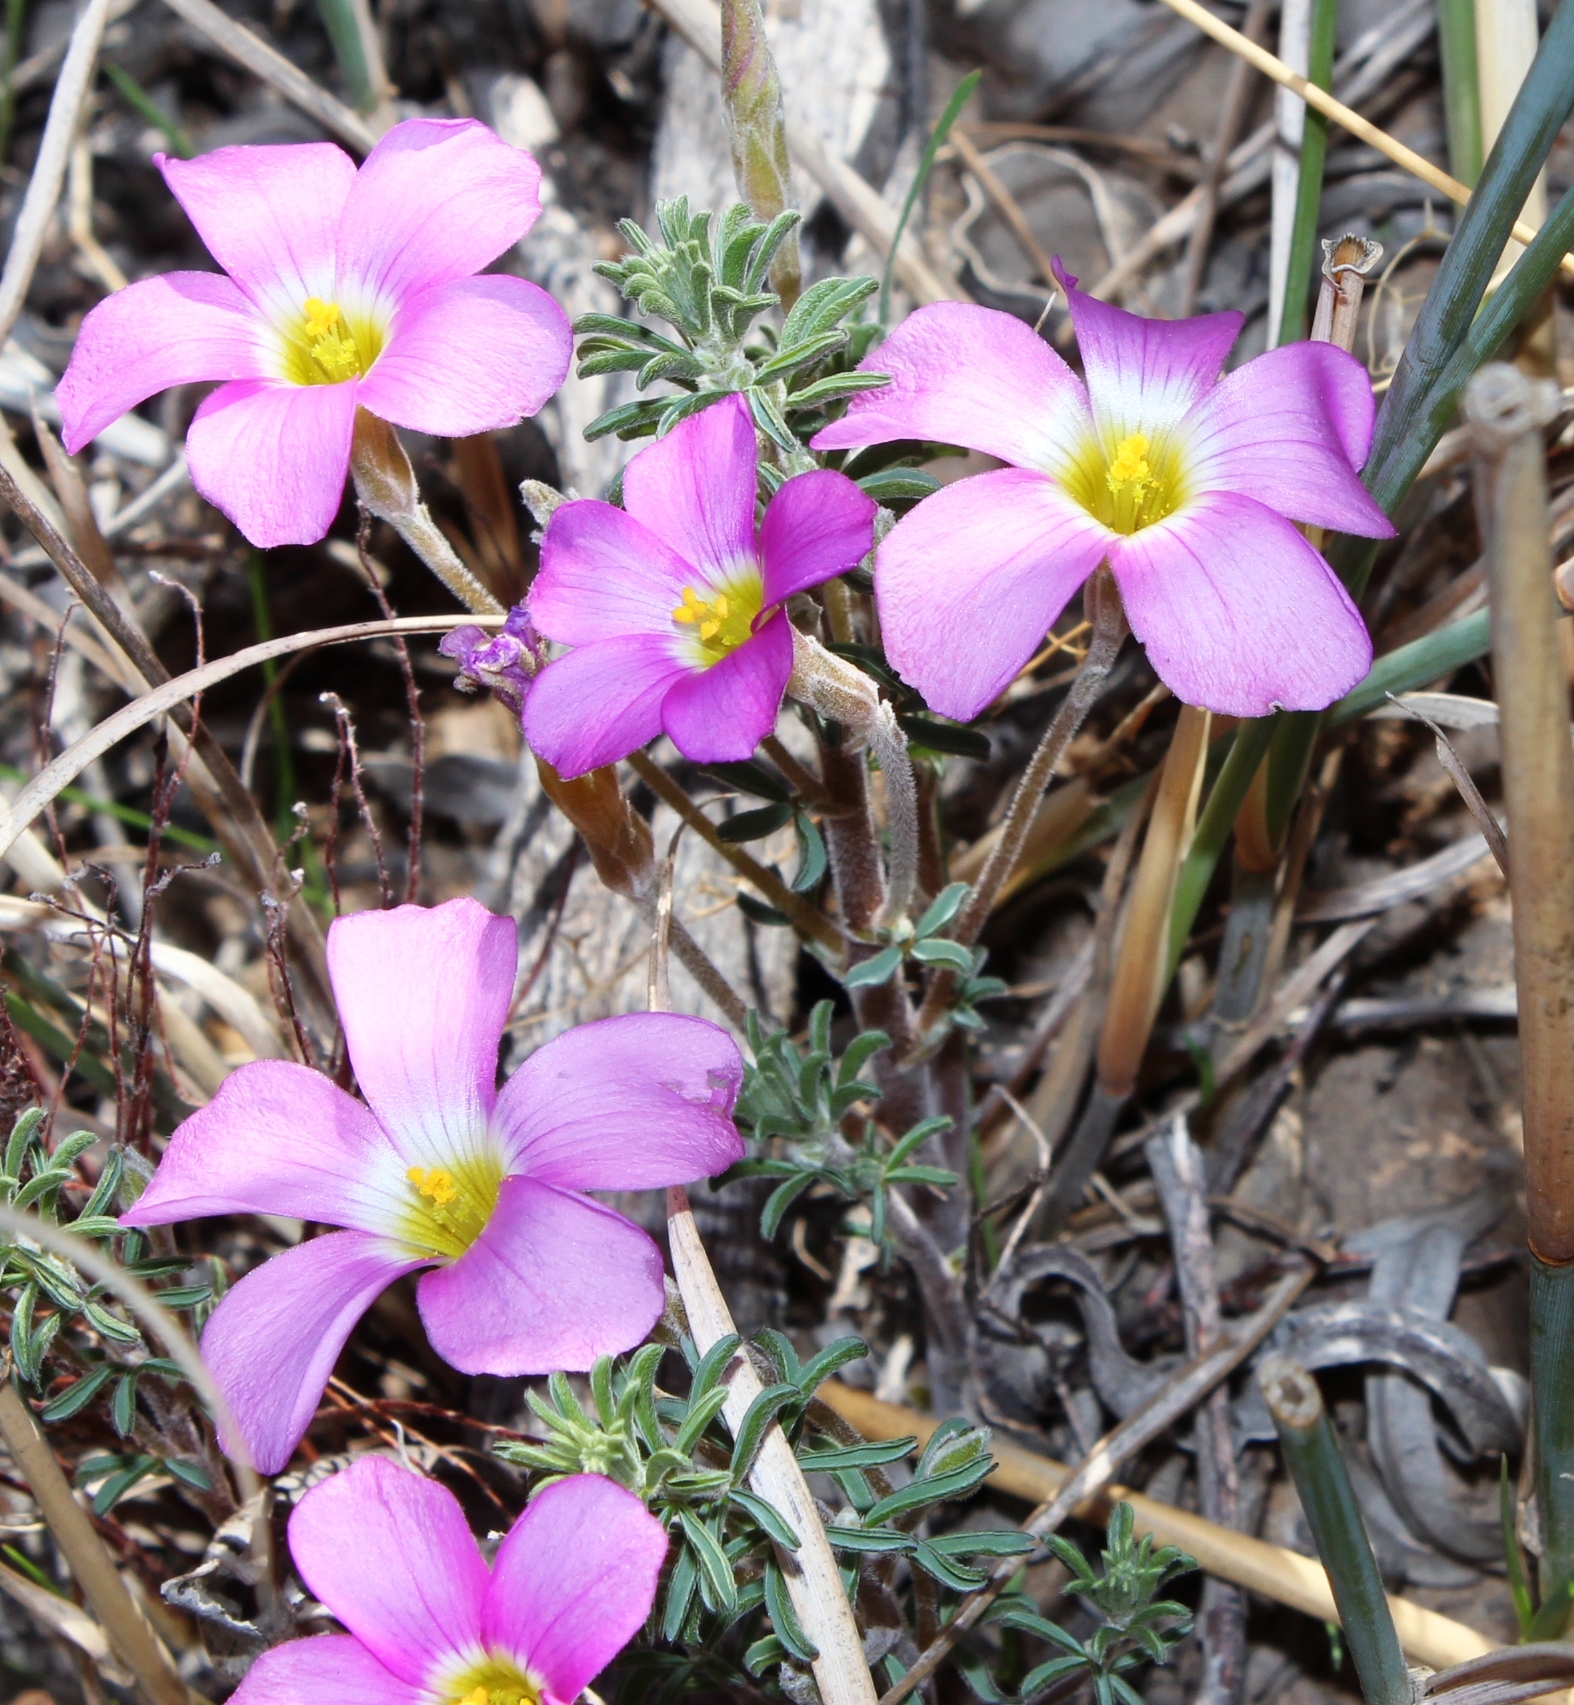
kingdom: Plantae
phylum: Tracheophyta
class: Magnoliopsida
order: Oxalidales
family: Oxalidaceae
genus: Oxalis
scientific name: Oxalis hirta
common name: Tropical woodsorrel
